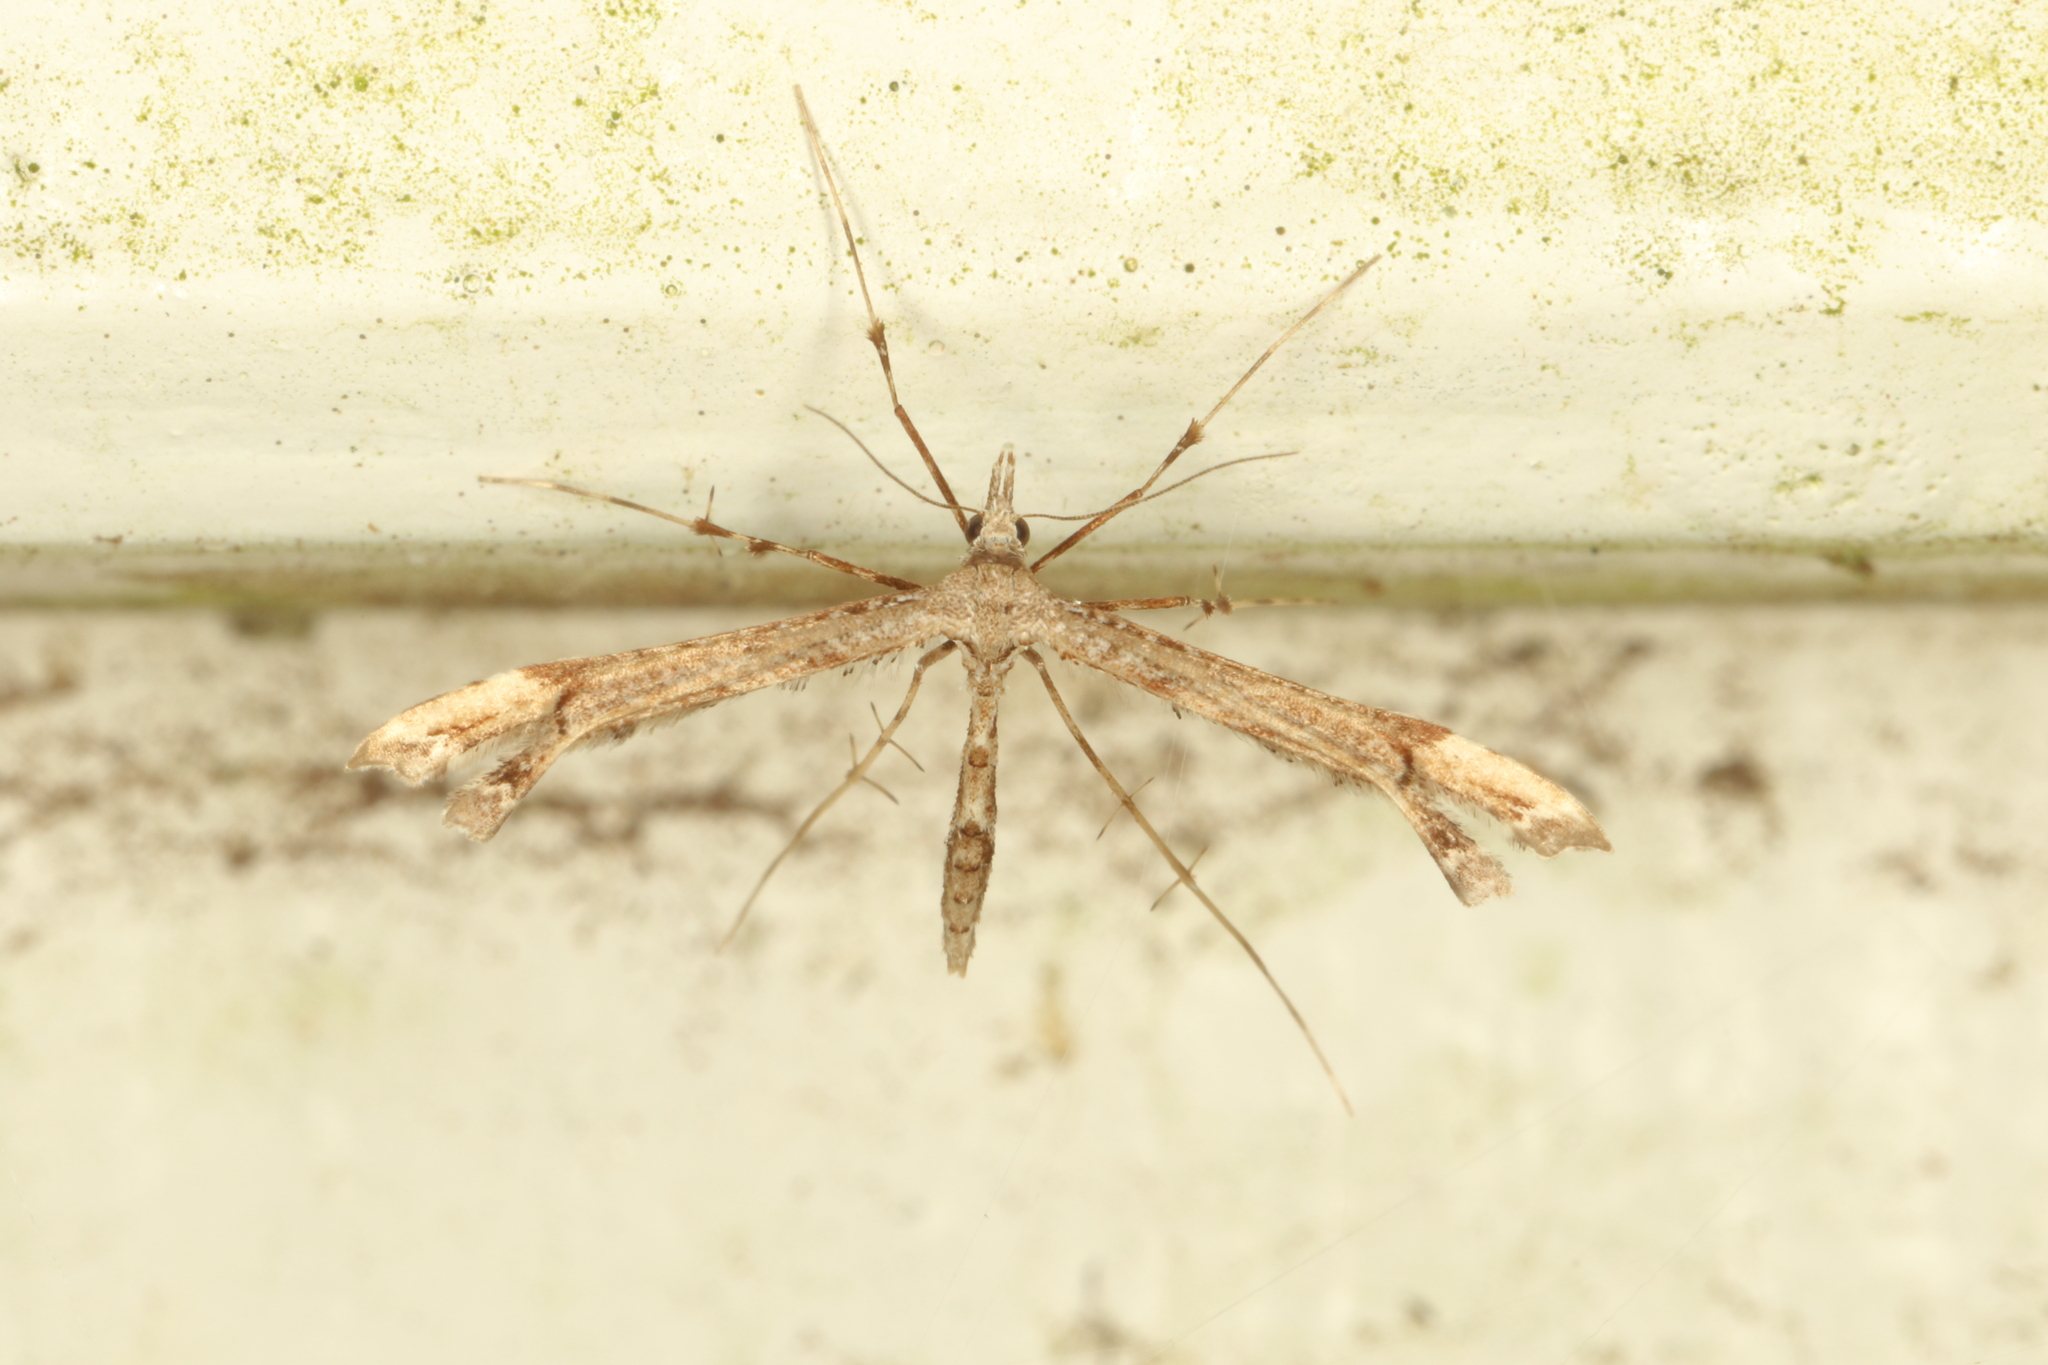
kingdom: Animalia
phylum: Arthropoda
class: Insecta
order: Lepidoptera
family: Pterophoridae
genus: Amblyptilia
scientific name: Amblyptilia repletalis
